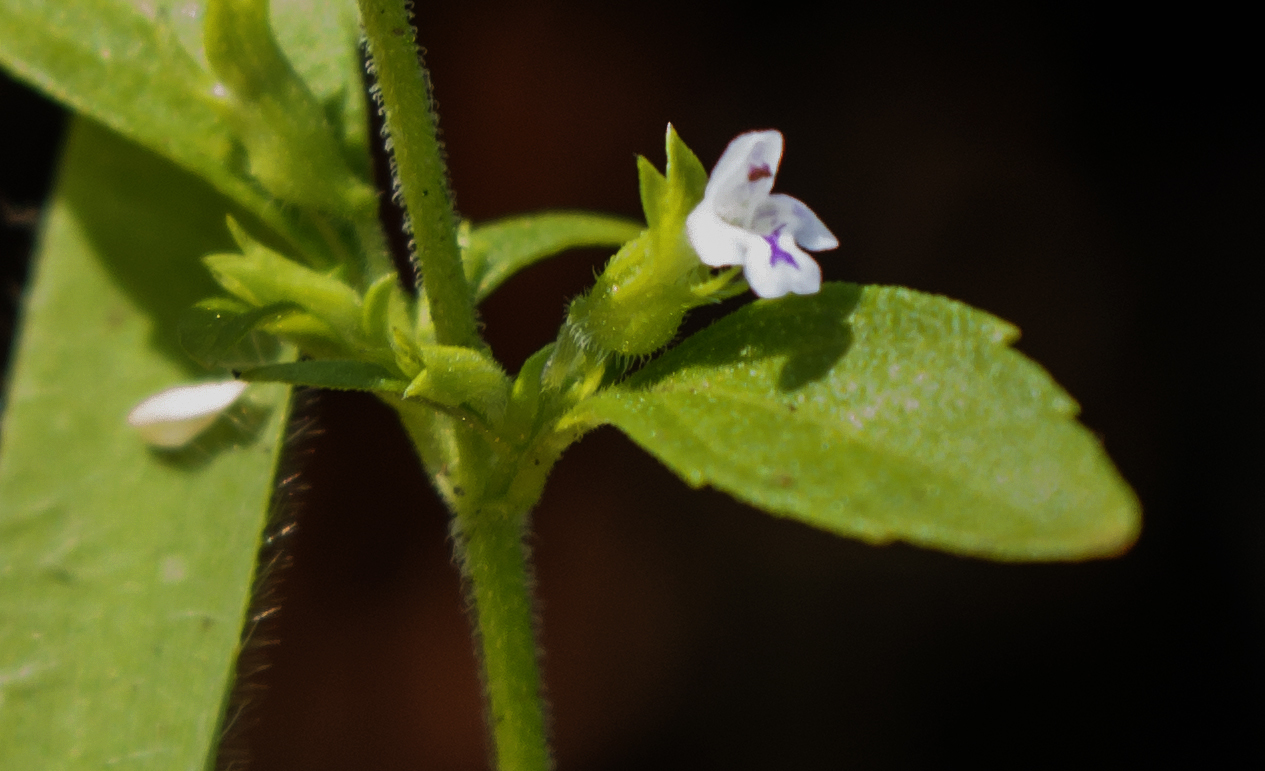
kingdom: Plantae
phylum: Tracheophyta
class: Magnoliopsida
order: Lamiales
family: Lamiaceae
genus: Hedeoma
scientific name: Hedeoma pulegioides
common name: American false pennyroyal
